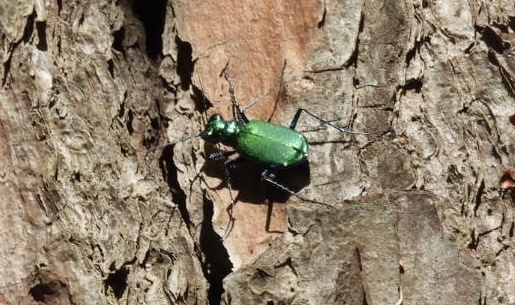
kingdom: Animalia
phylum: Arthropoda
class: Insecta
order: Coleoptera
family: Carabidae
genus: Cicindela
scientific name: Cicindela sexguttata
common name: Six-spotted tiger beetle
